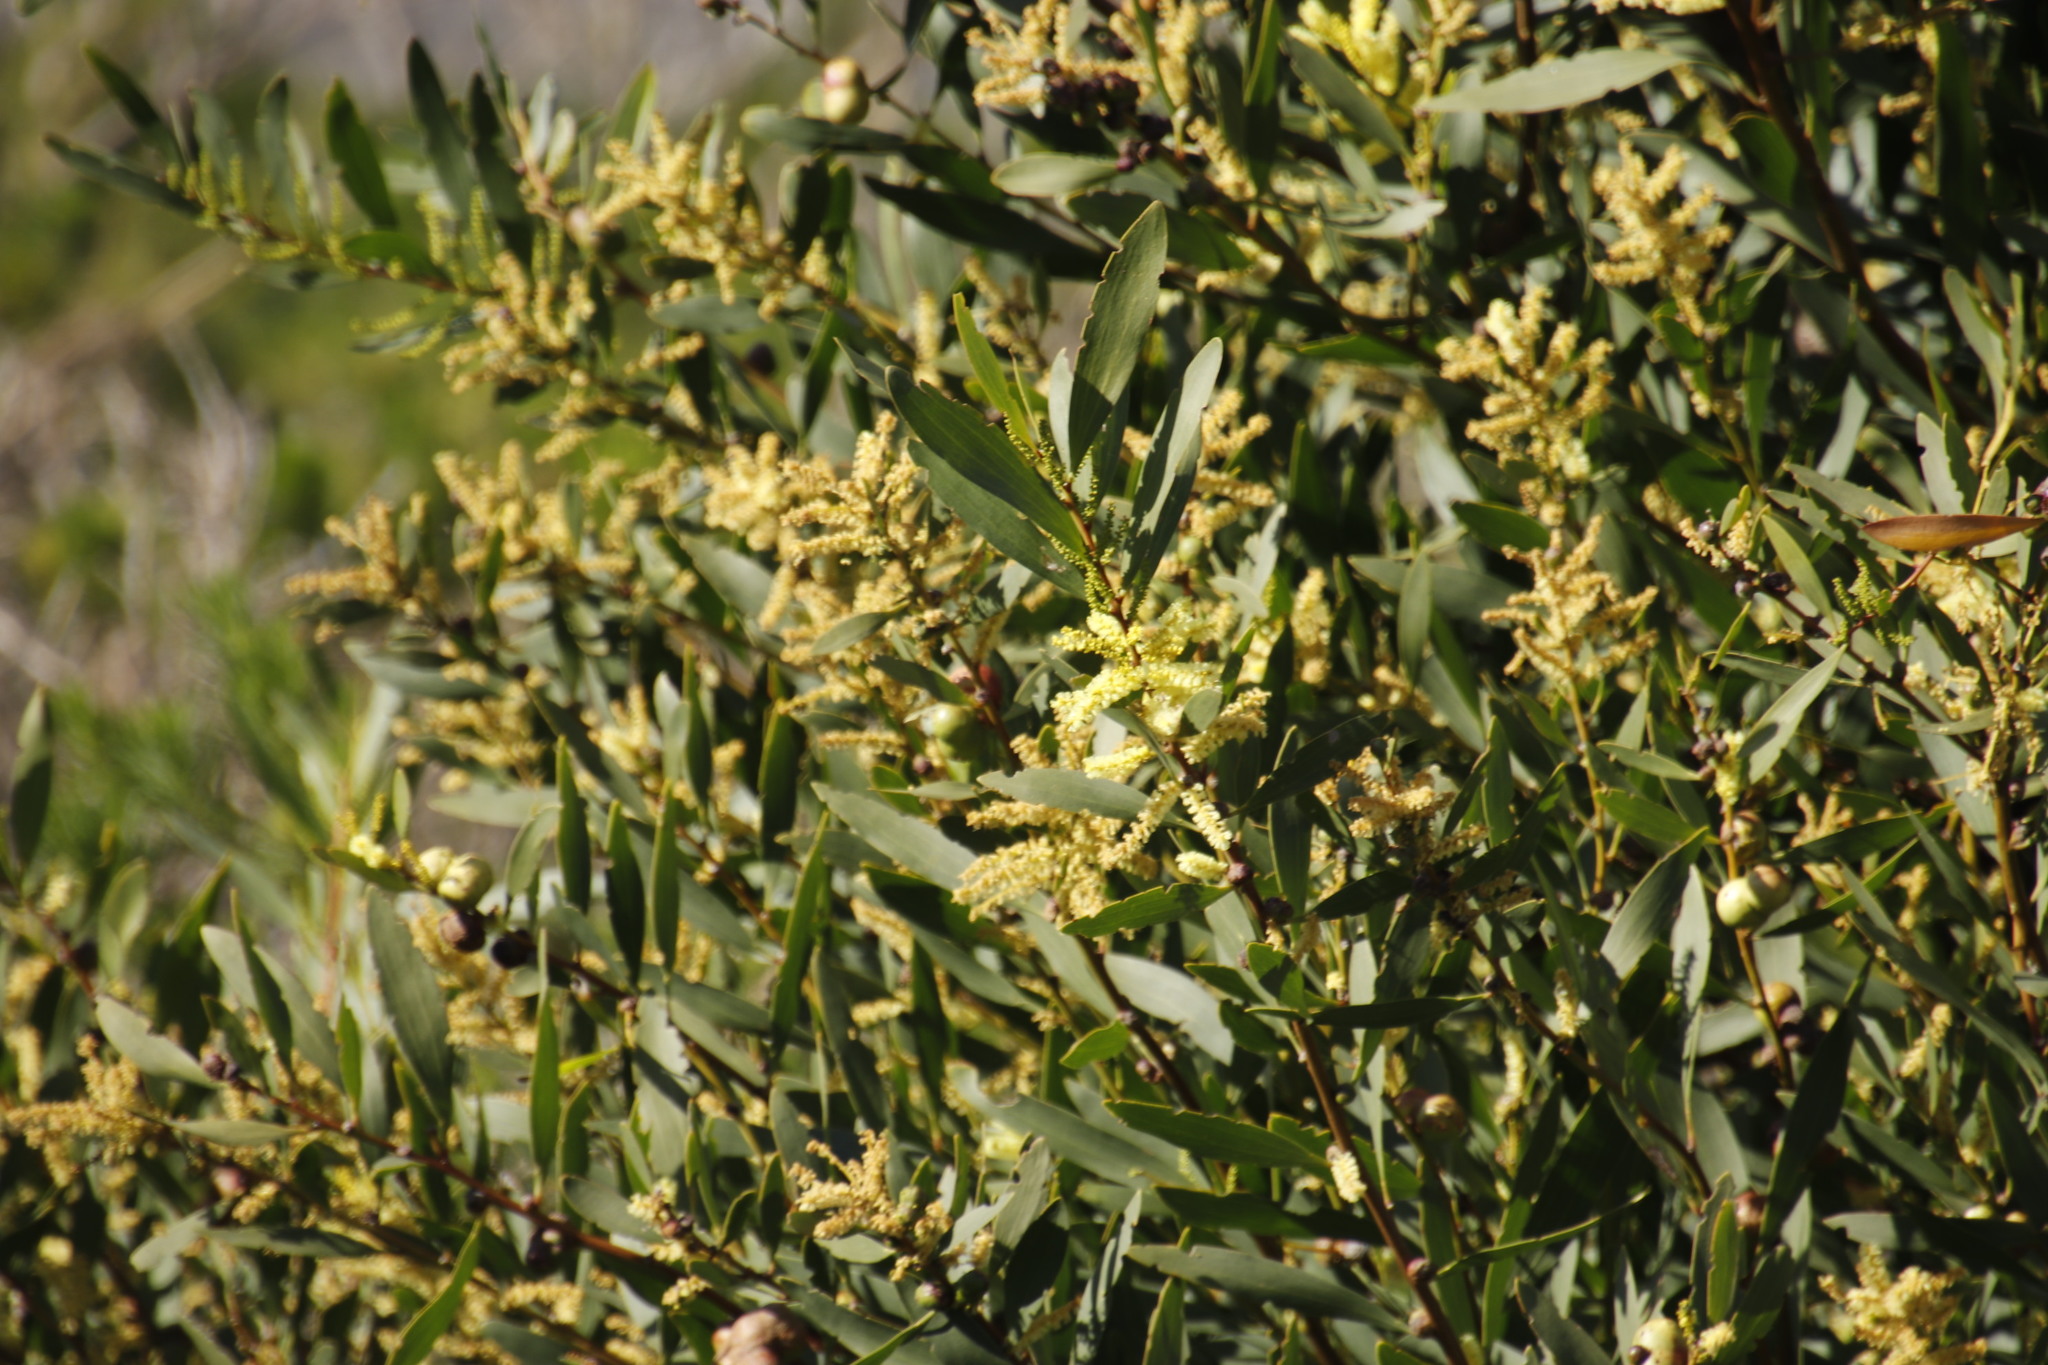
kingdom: Plantae
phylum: Tracheophyta
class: Magnoliopsida
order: Fabales
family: Fabaceae
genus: Acacia
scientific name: Acacia longifolia
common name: Sydney golden wattle
